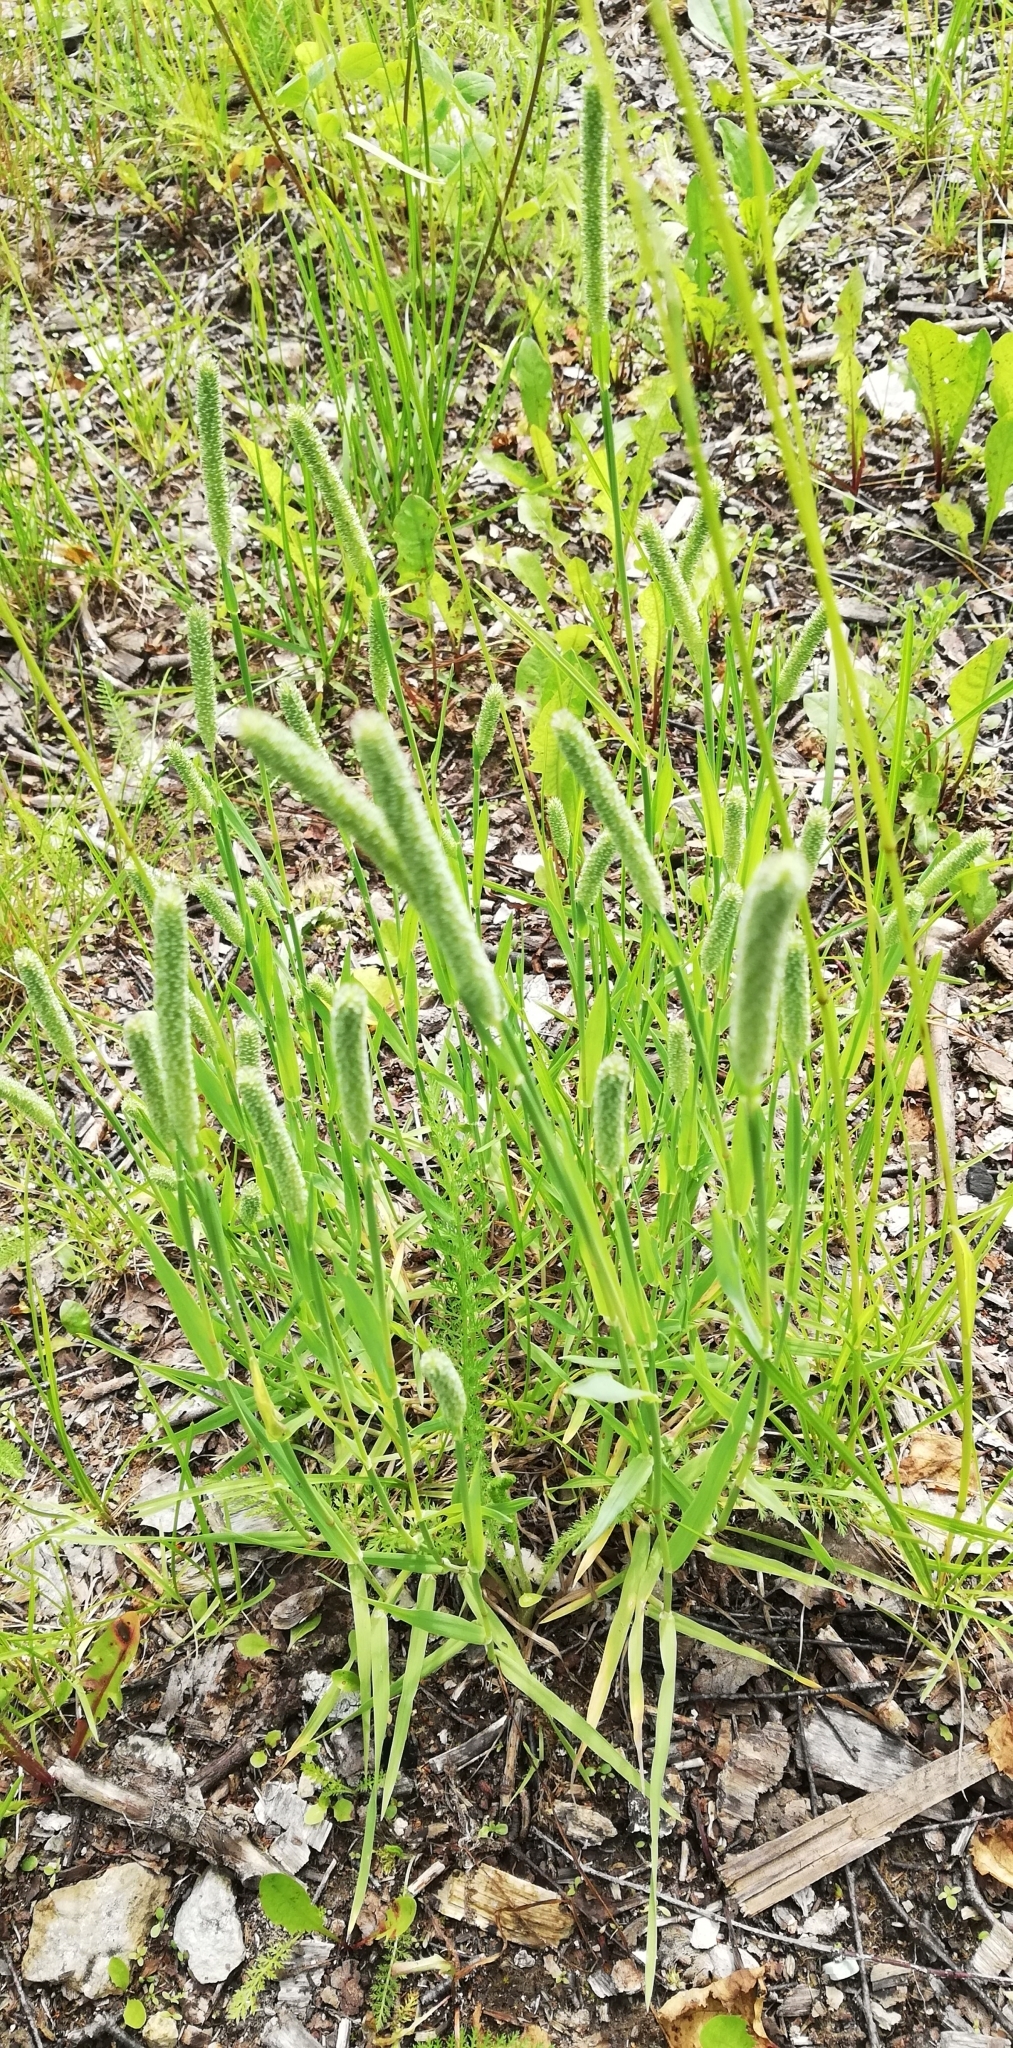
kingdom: Plantae
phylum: Tracheophyta
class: Liliopsida
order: Poales
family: Poaceae
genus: Phleum
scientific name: Phleum pratense
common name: Timothy grass
